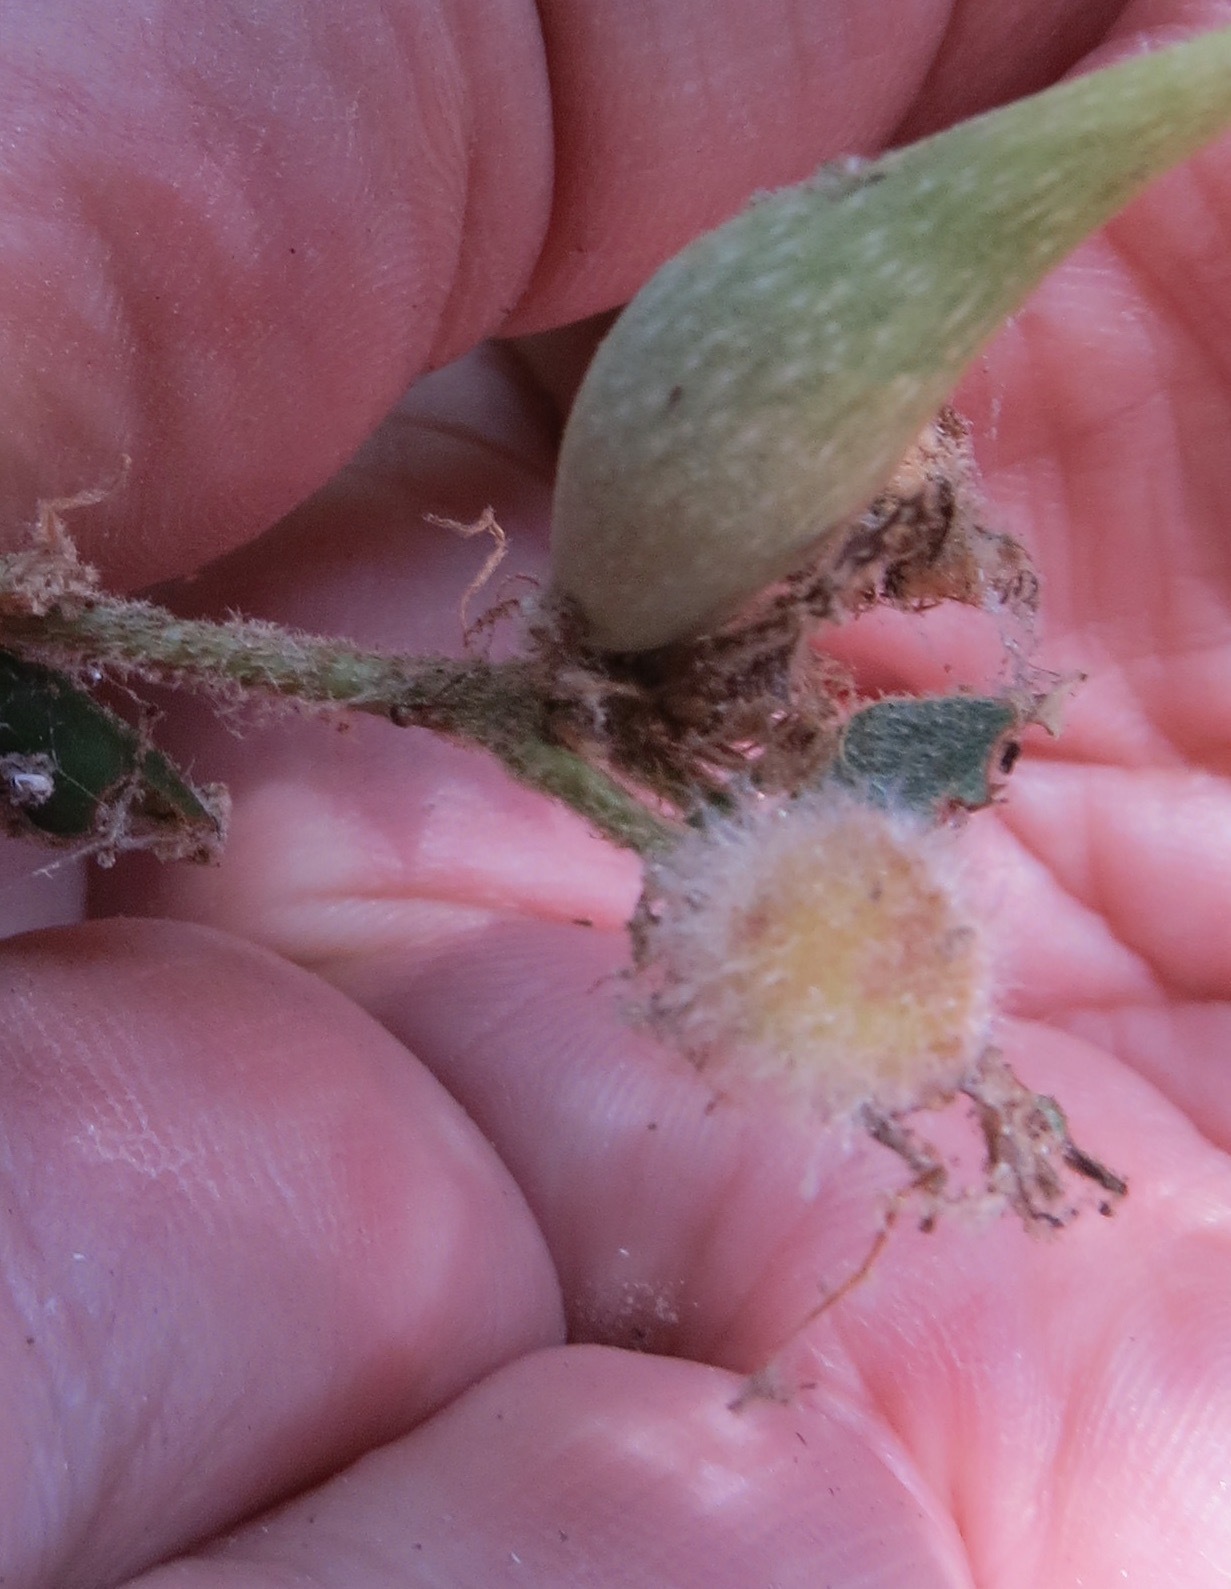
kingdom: Animalia
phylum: Arthropoda
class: Insecta
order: Hymenoptera
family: Cynipidae
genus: Disholandricus
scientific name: Disholandricus
